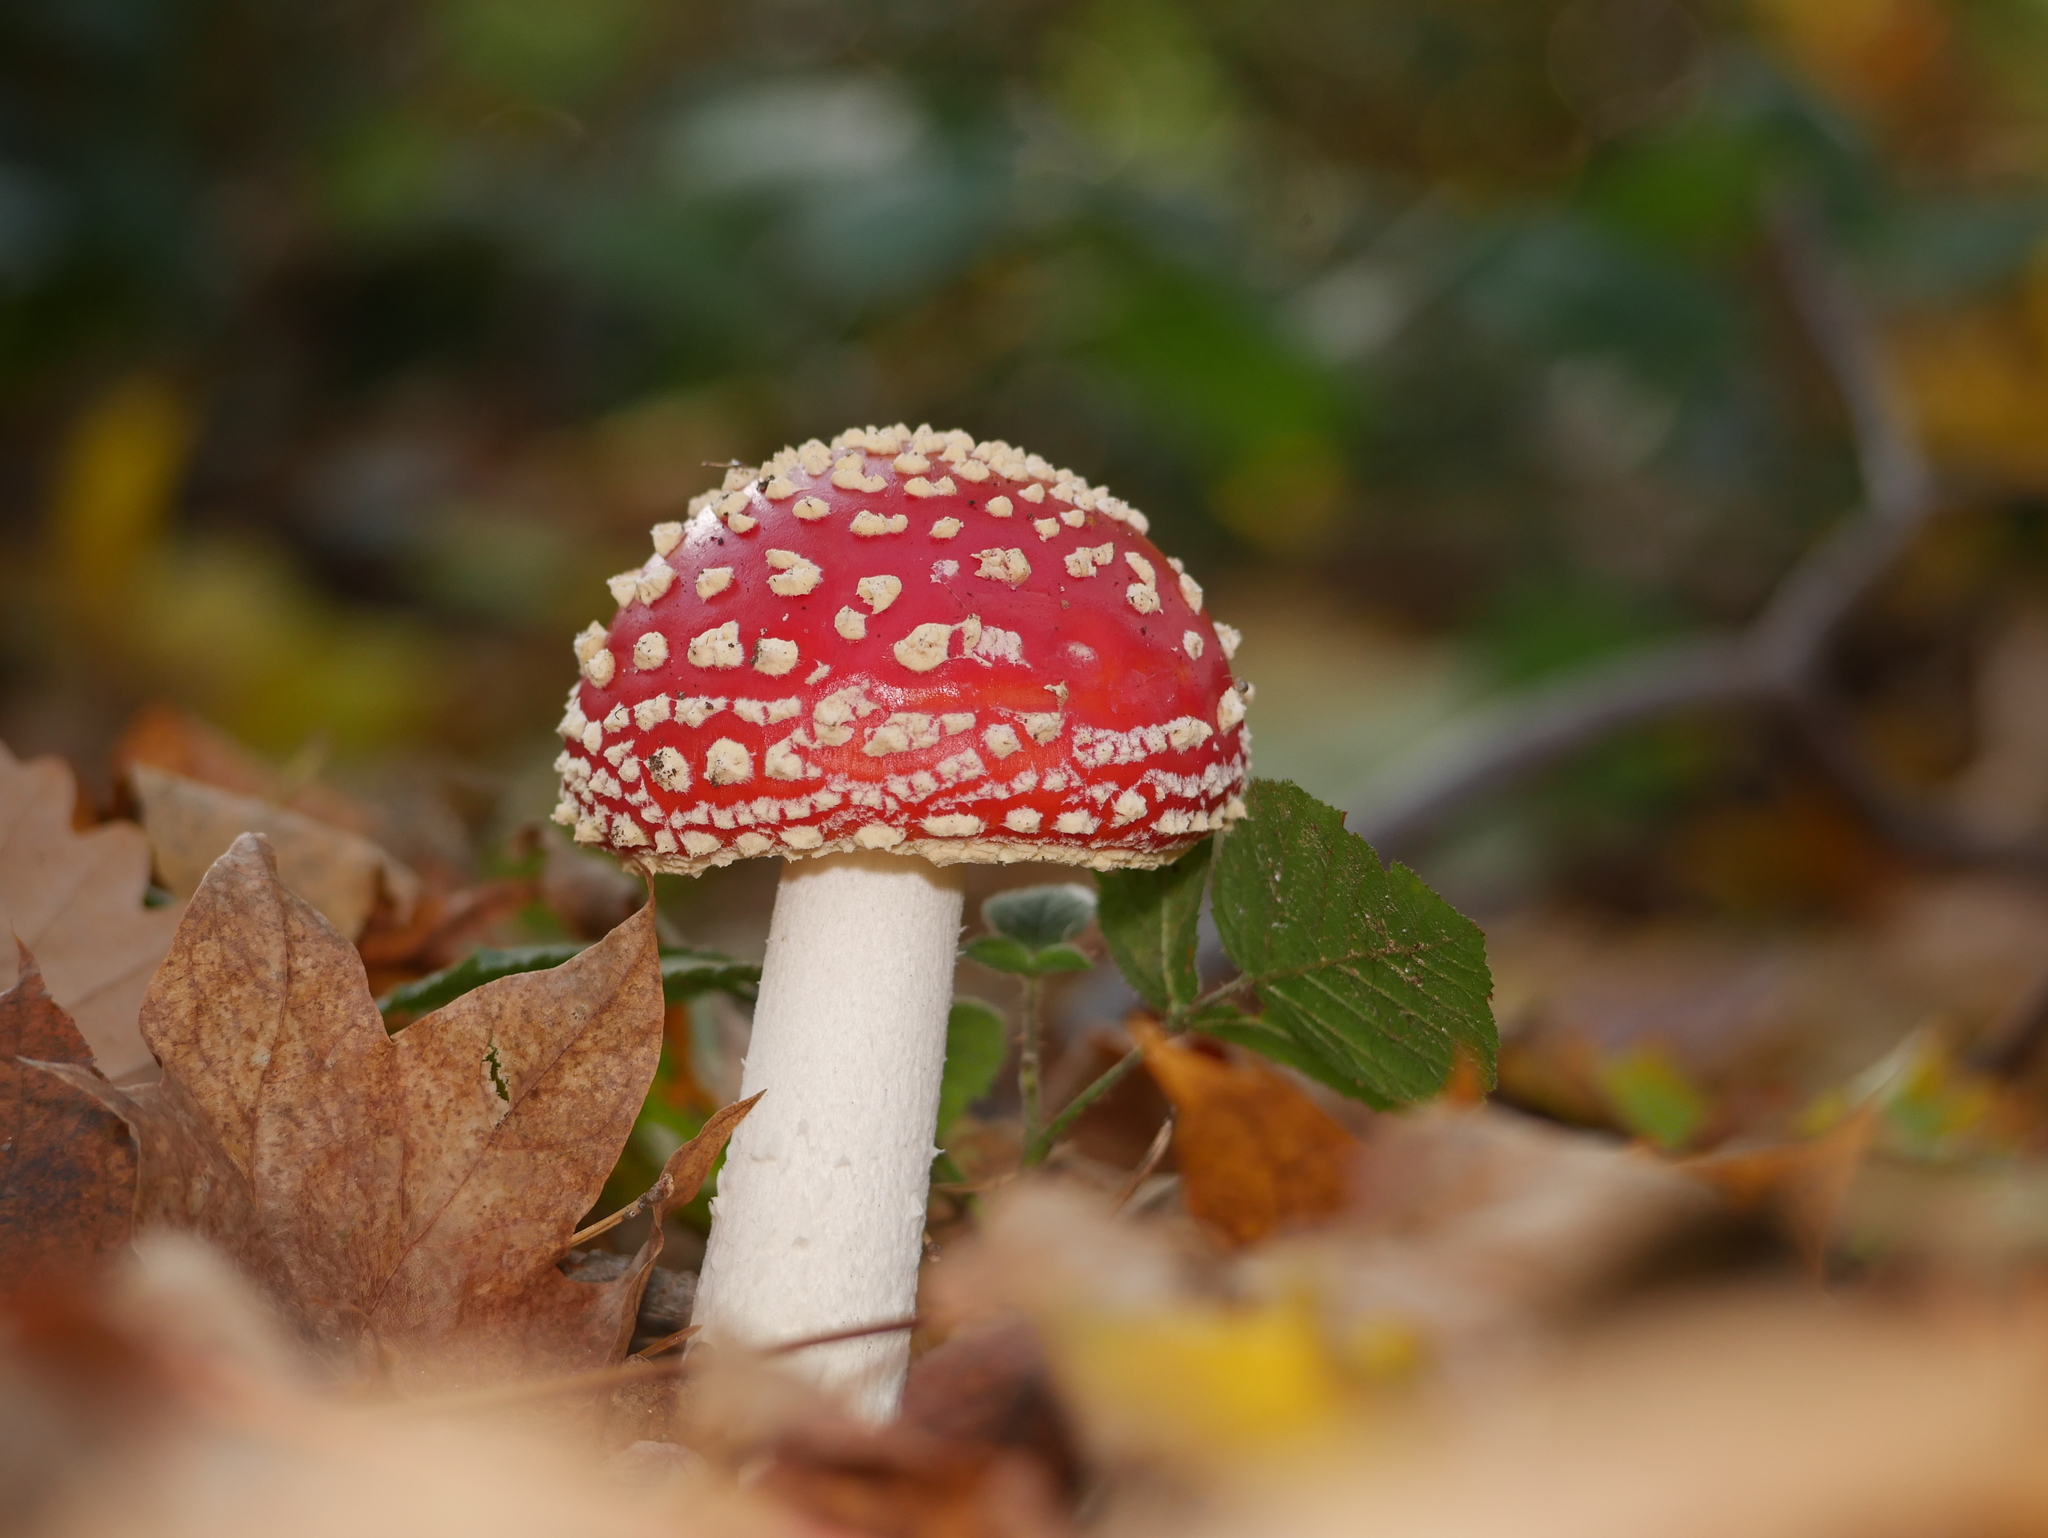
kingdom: Fungi
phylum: Basidiomycota
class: Agaricomycetes
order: Agaricales
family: Amanitaceae
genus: Amanita
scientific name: Amanita muscaria
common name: Fly agaric
